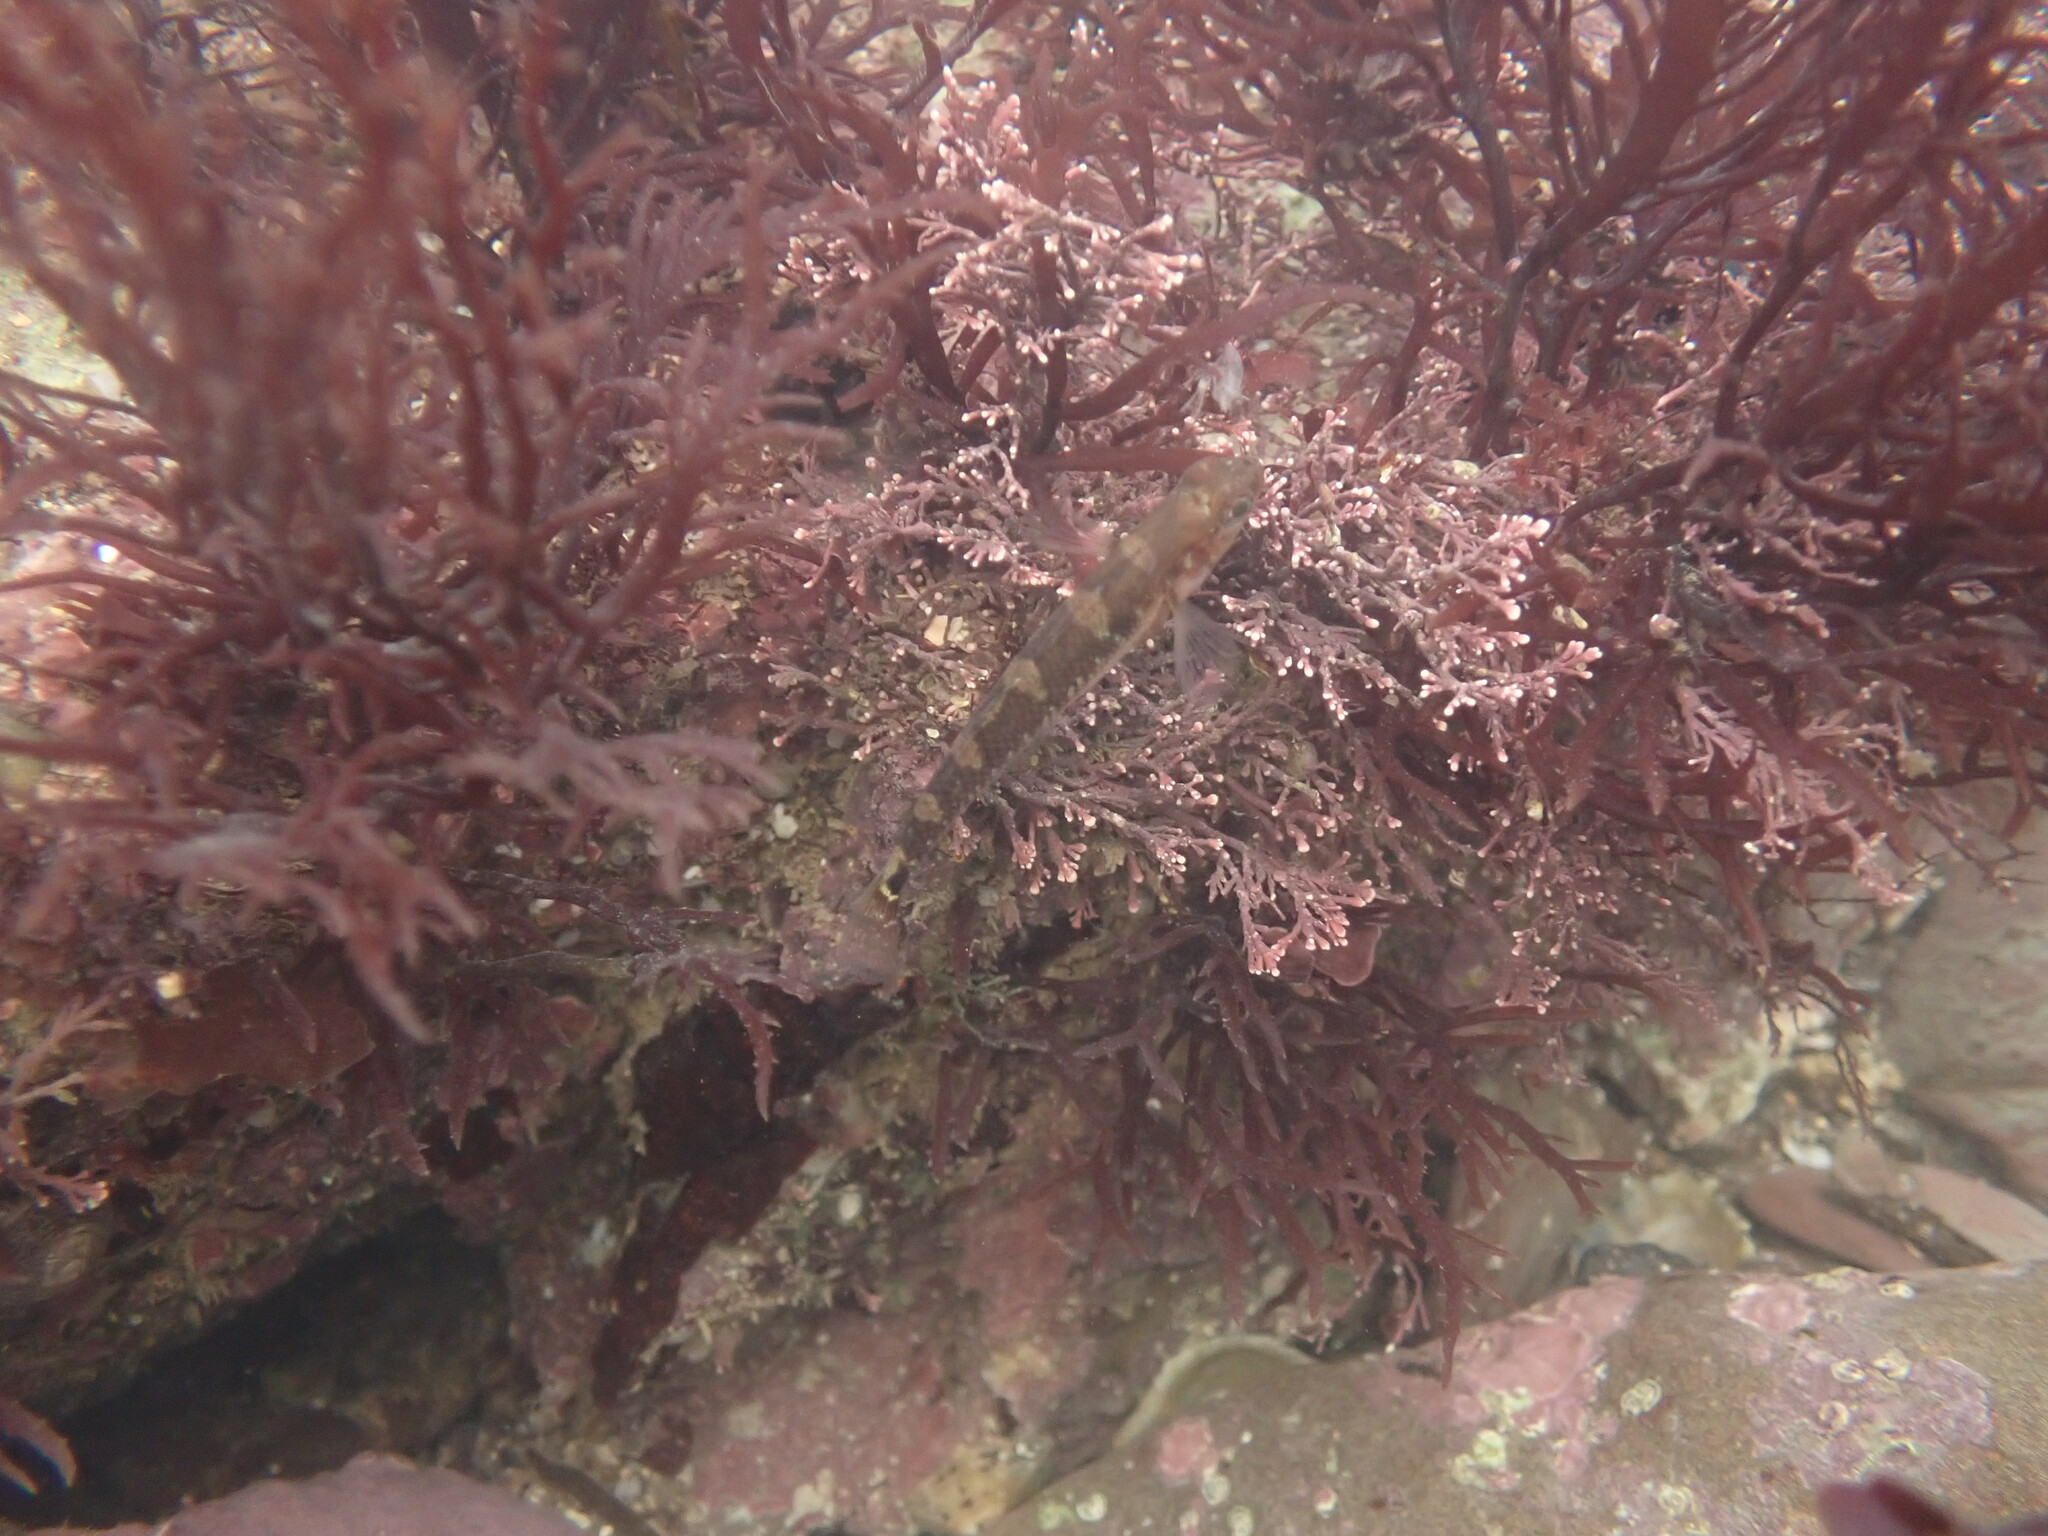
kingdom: Animalia
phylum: Chordata
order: Perciformes
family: Gobiidae
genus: Gobiusculus
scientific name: Gobiusculus flavescens
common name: Two-spotted goby
